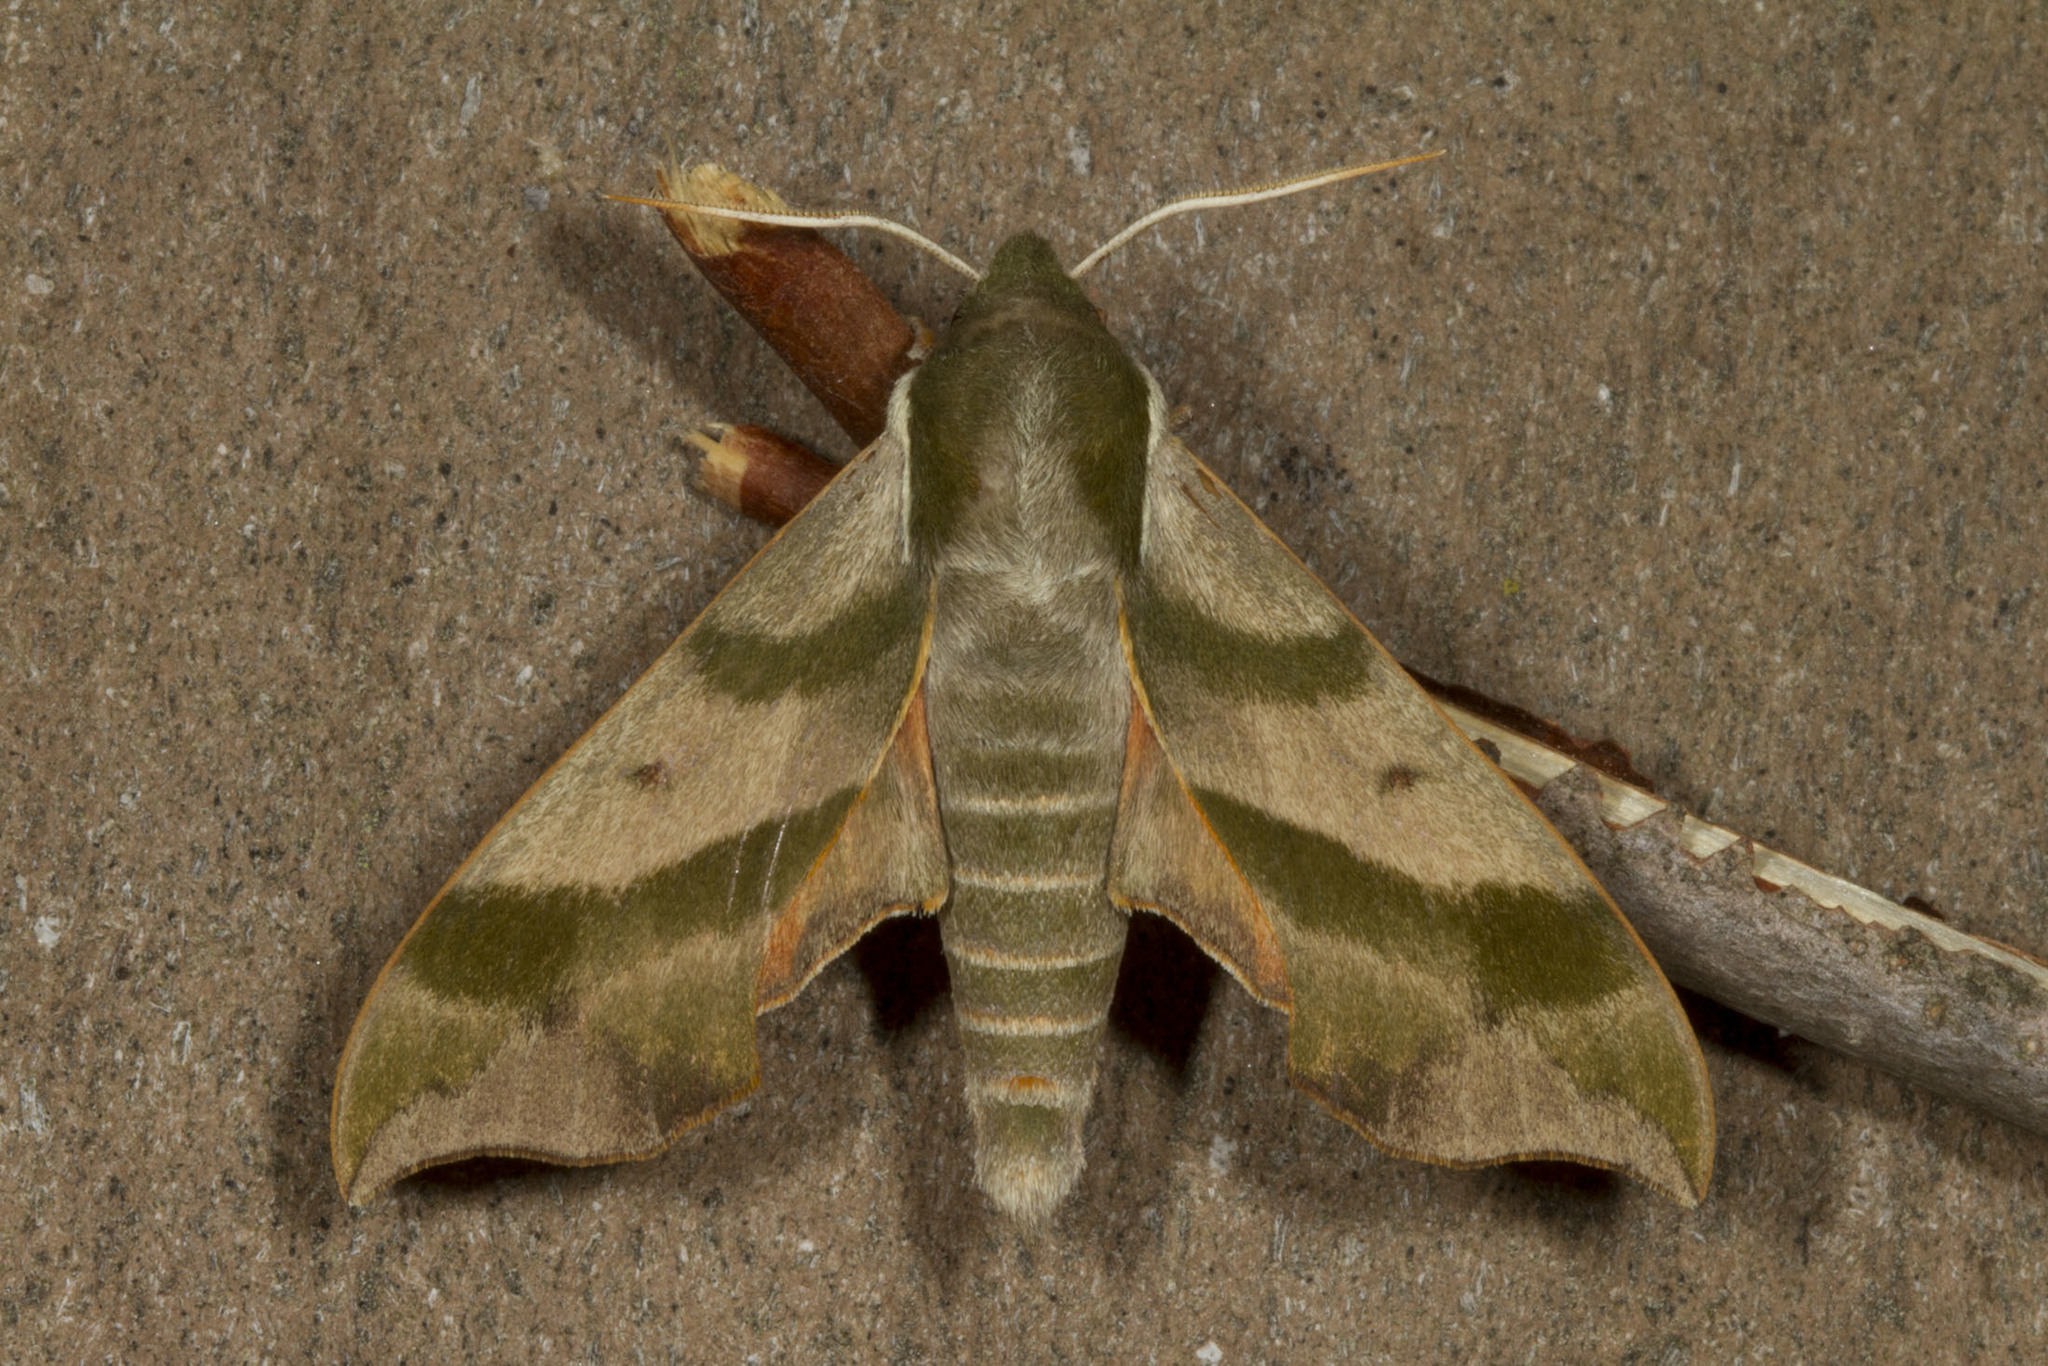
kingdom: Animalia
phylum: Arthropoda
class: Insecta
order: Lepidoptera
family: Sphingidae
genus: Darapsa
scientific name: Darapsa myron
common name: Hog sphinx
